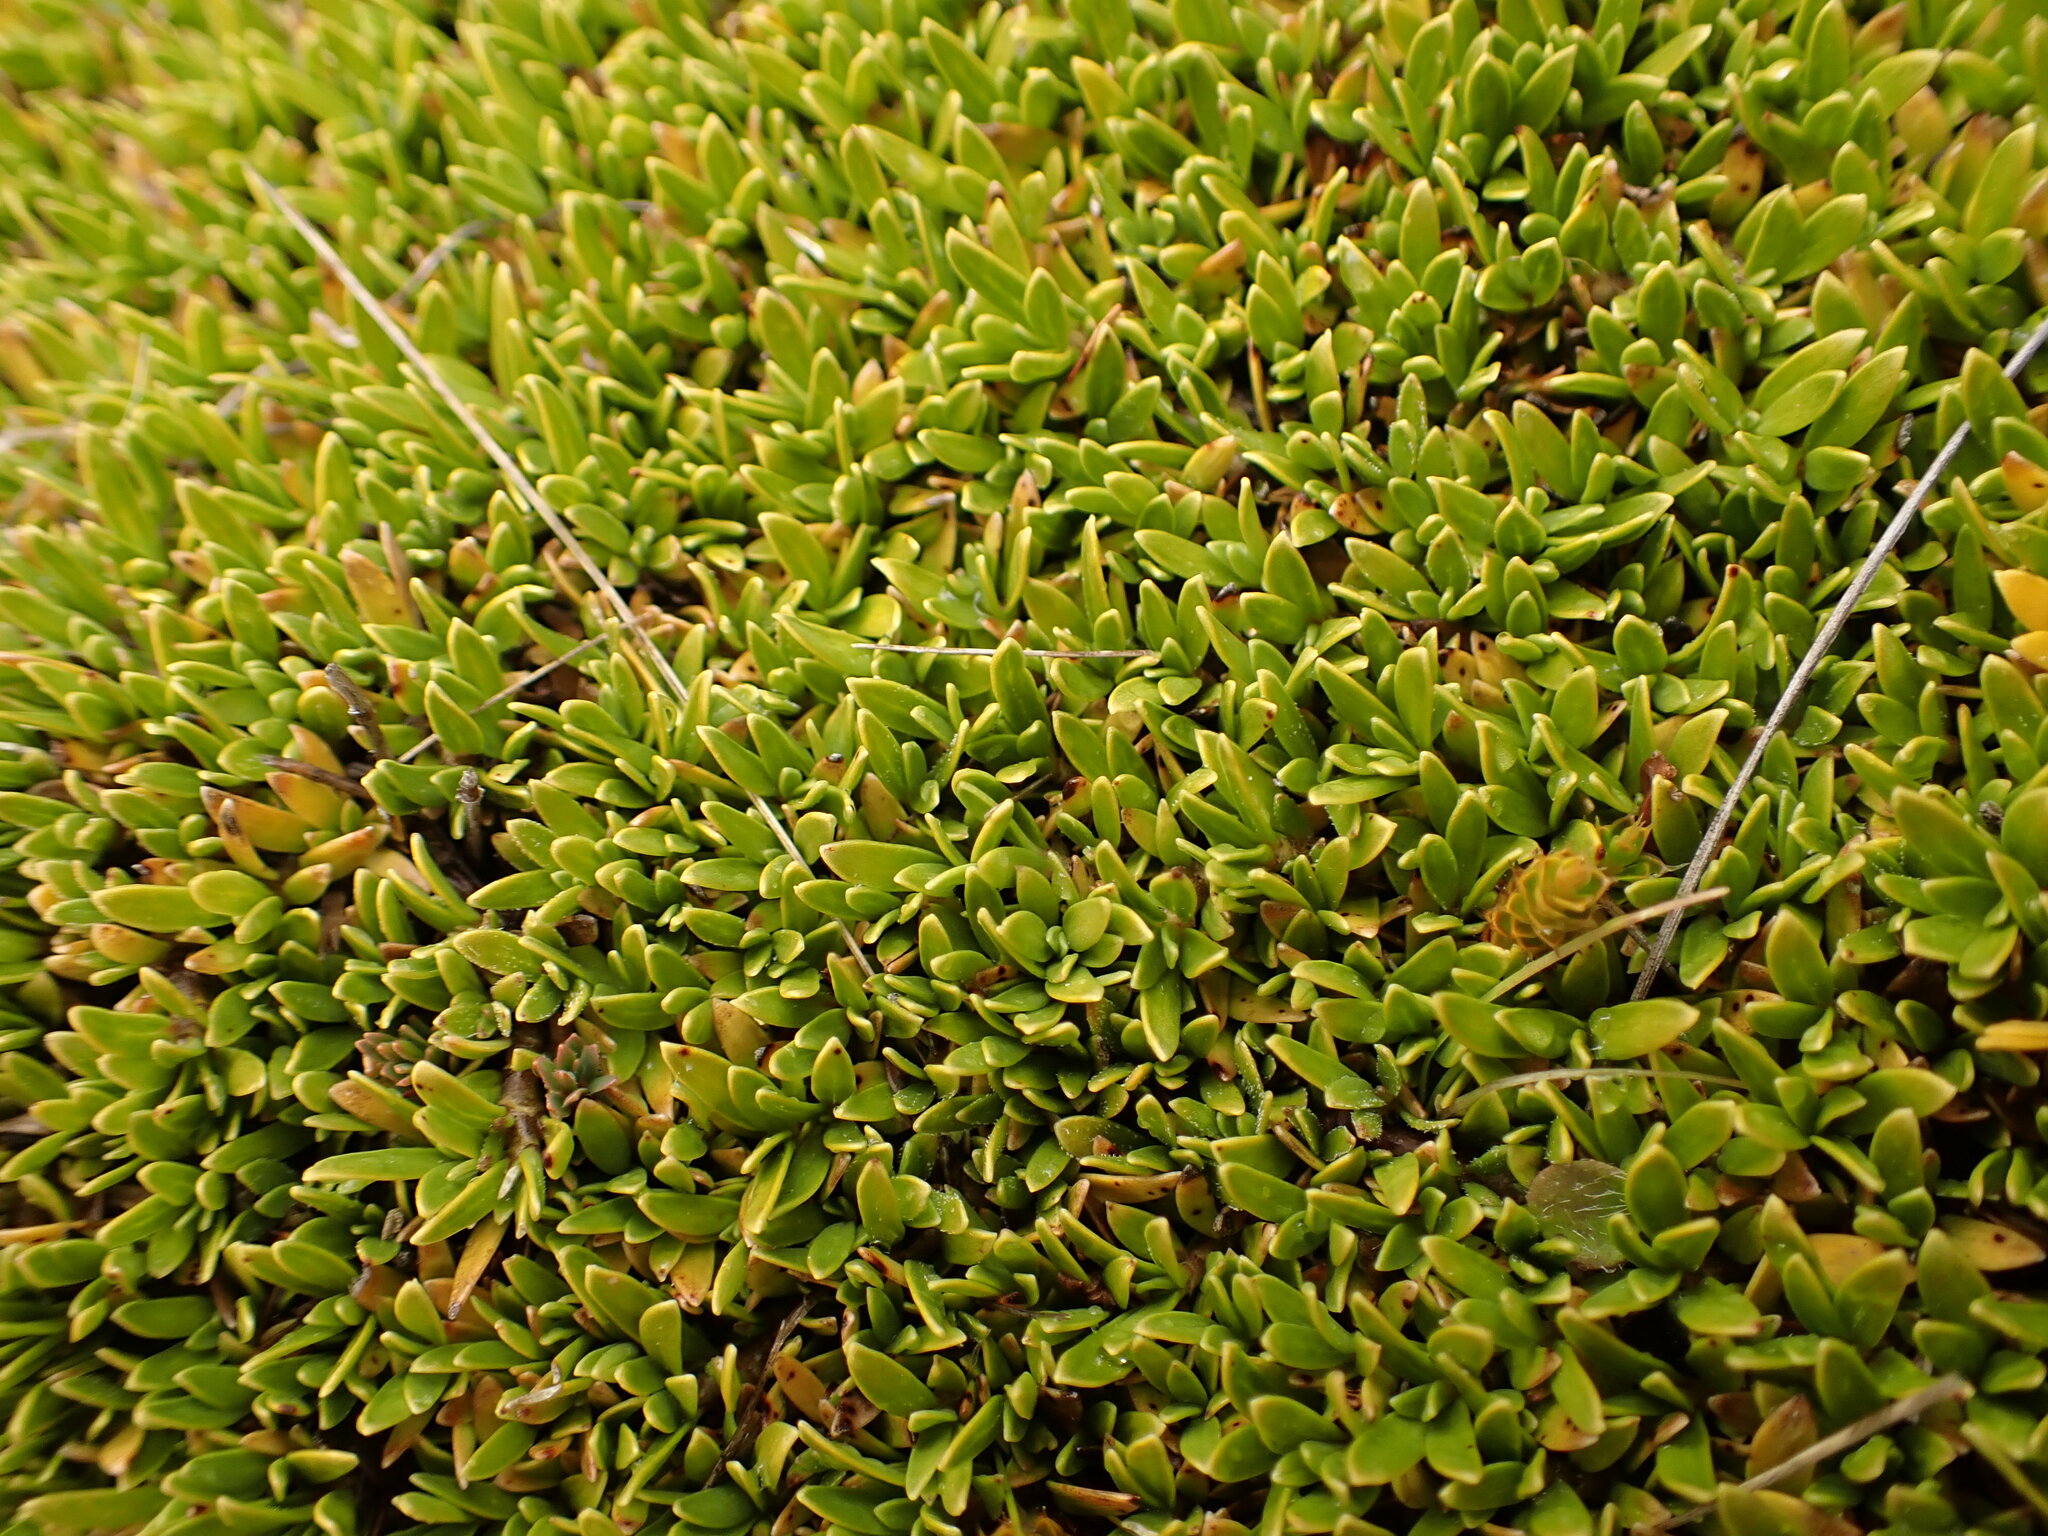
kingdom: Plantae
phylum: Tracheophyta
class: Magnoliopsida
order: Gentianales
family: Rubiaceae
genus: Coprosma
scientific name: Coprosma petriei
